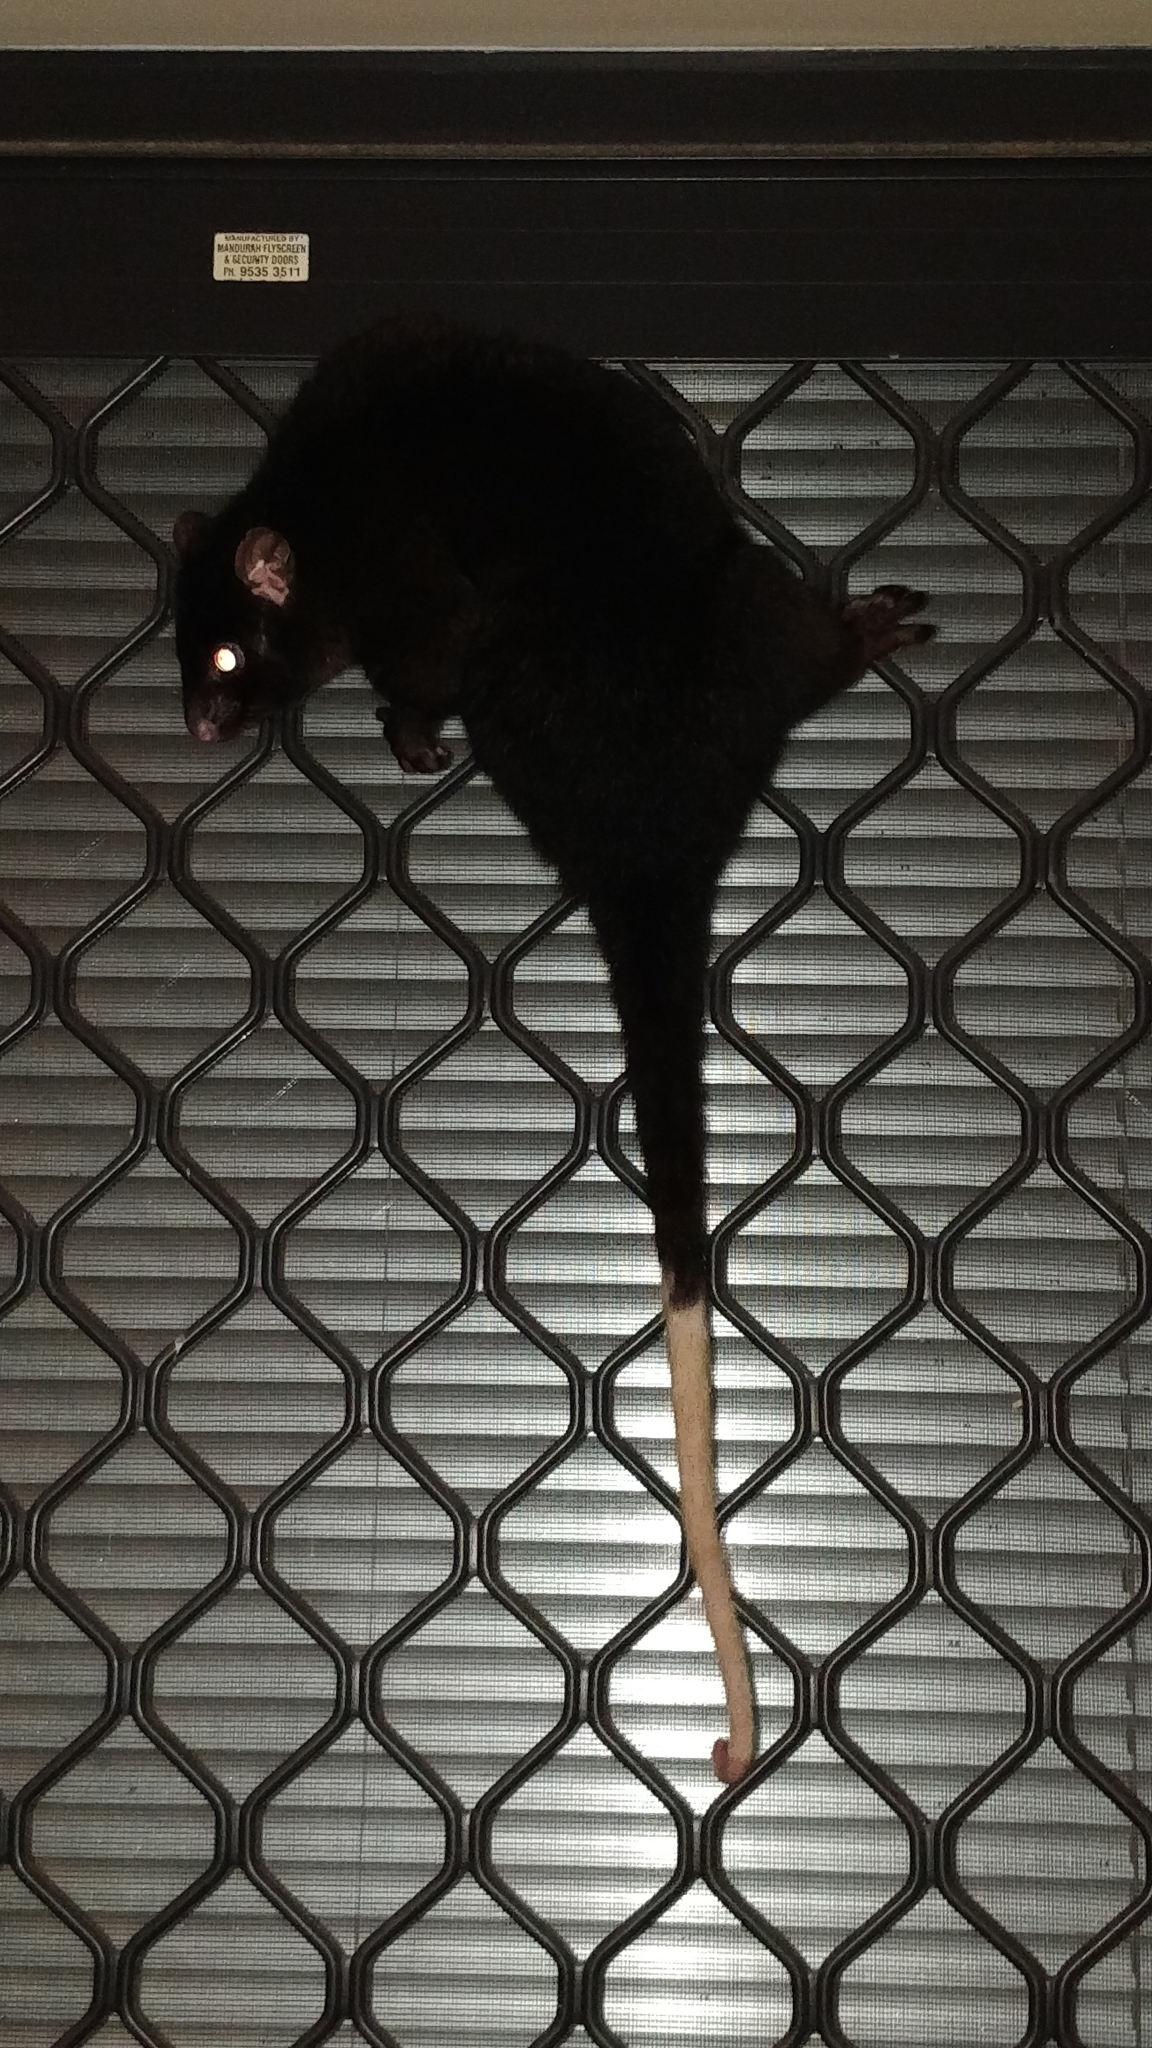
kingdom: Animalia
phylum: Chordata
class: Mammalia
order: Diprotodontia
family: Pseudocheiridae
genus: Pseudocheirus
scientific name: Pseudocheirus peregrinus
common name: Common ringtail possum
